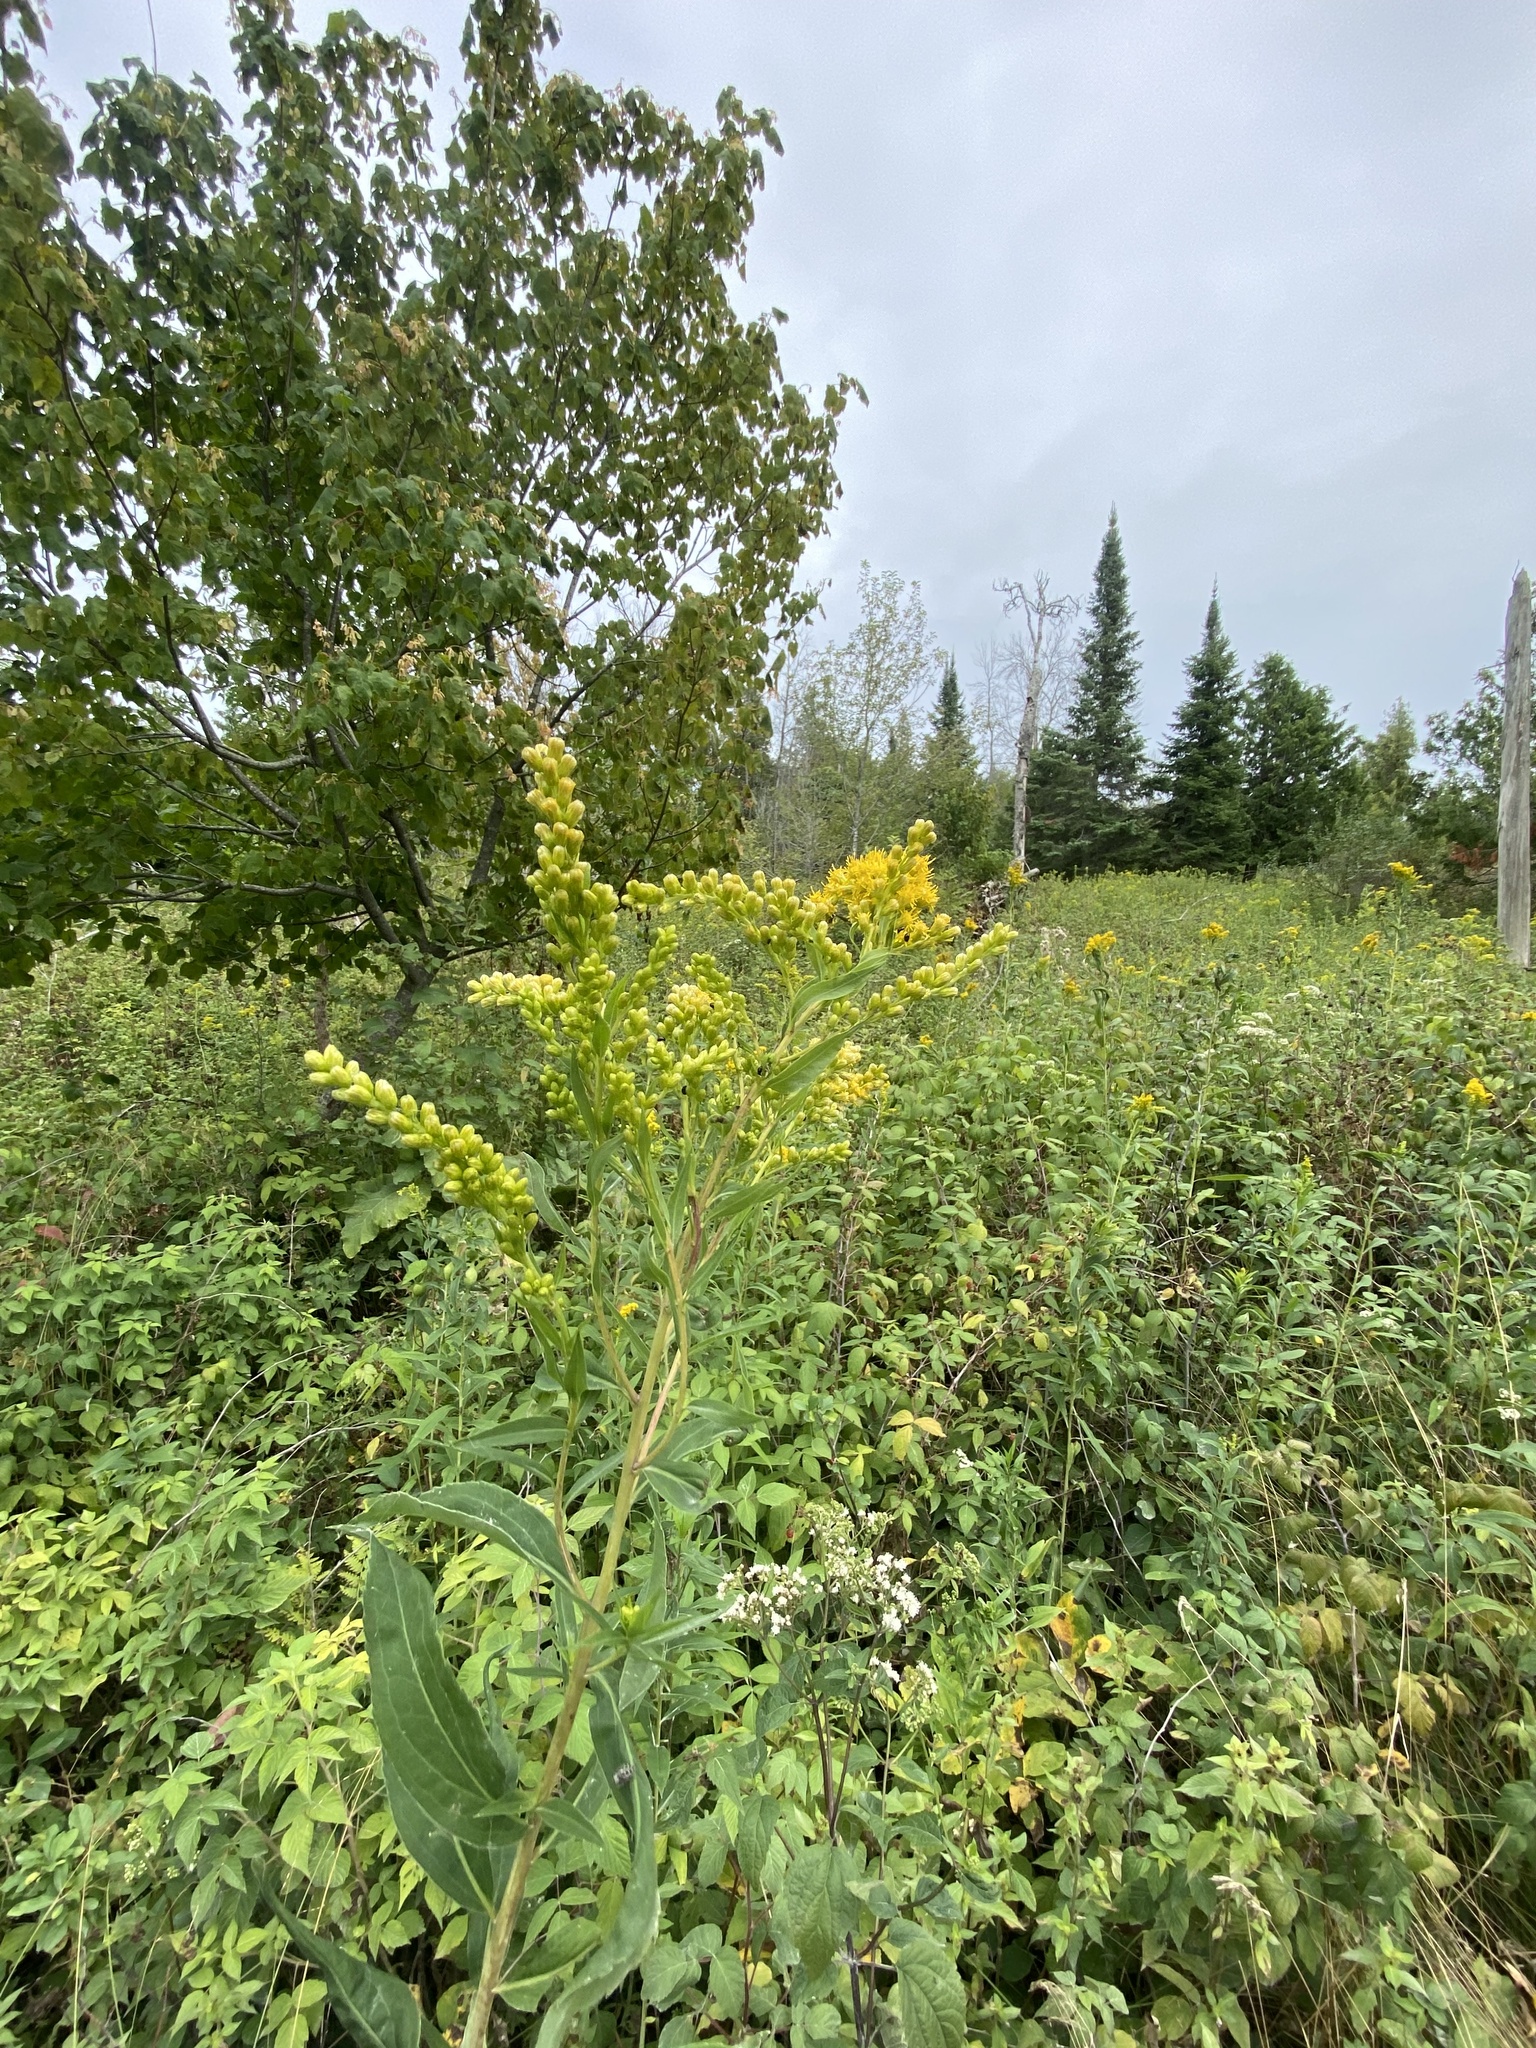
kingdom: Plantae
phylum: Tracheophyta
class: Magnoliopsida
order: Asterales
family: Asteraceae
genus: Solidago
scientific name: Solidago gigantea
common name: Giant goldenrod
